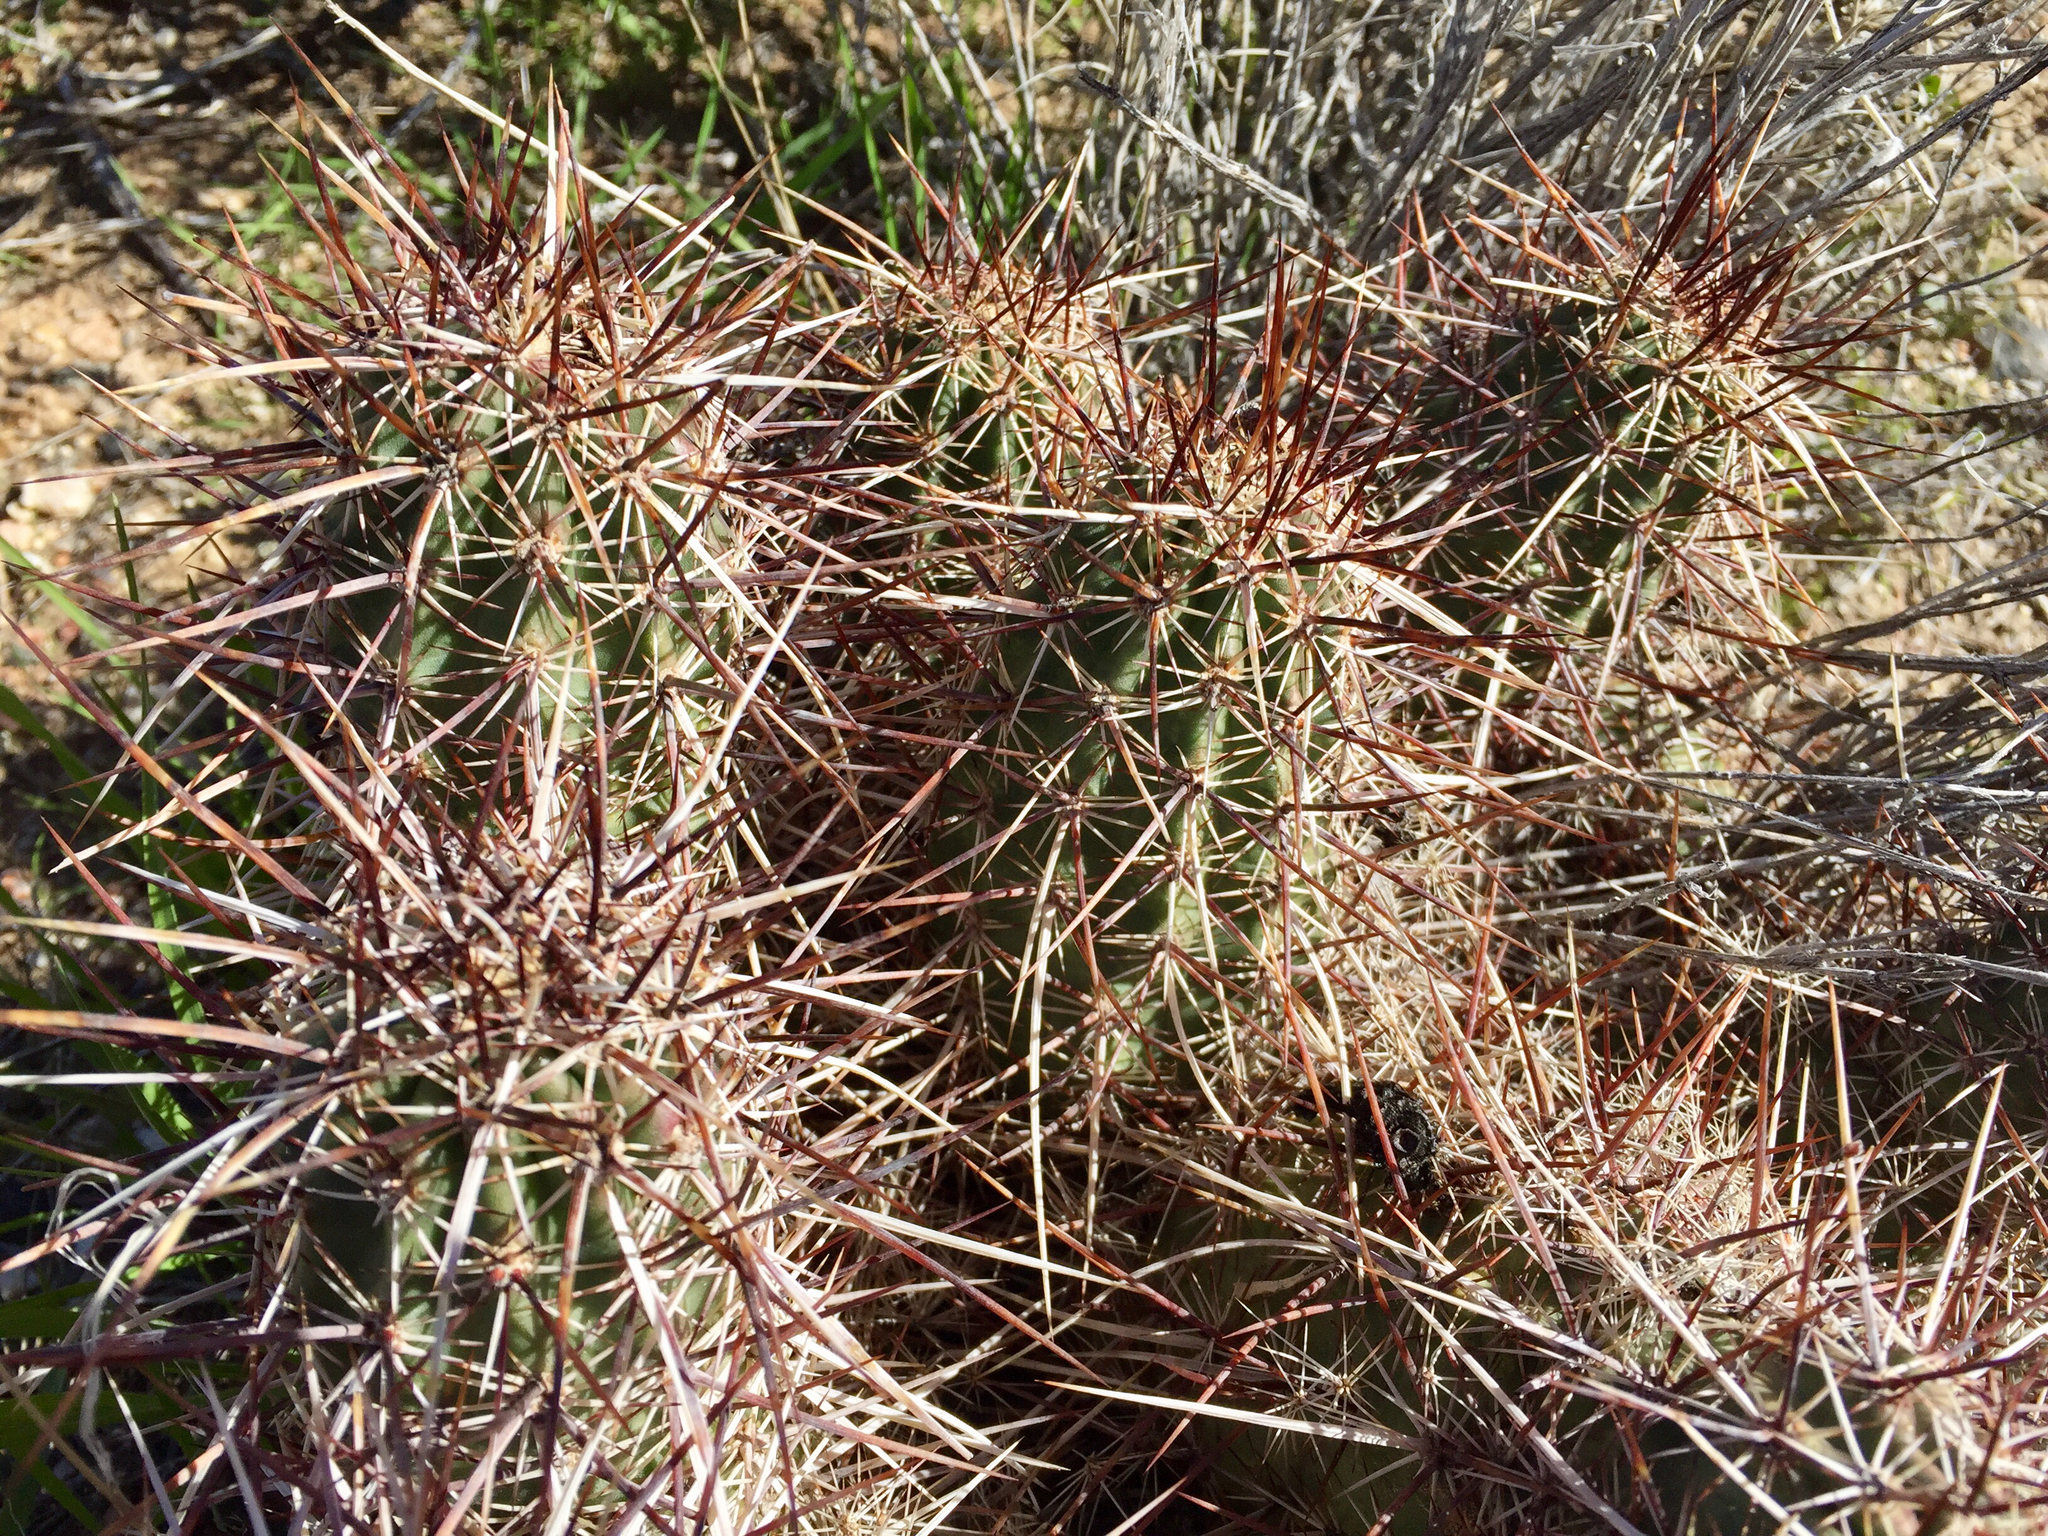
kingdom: Plantae
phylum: Tracheophyta
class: Magnoliopsida
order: Caryophyllales
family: Cactaceae
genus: Echinocereus
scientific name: Echinocereus engelmannii
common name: Engelmann's hedgehog cactus
